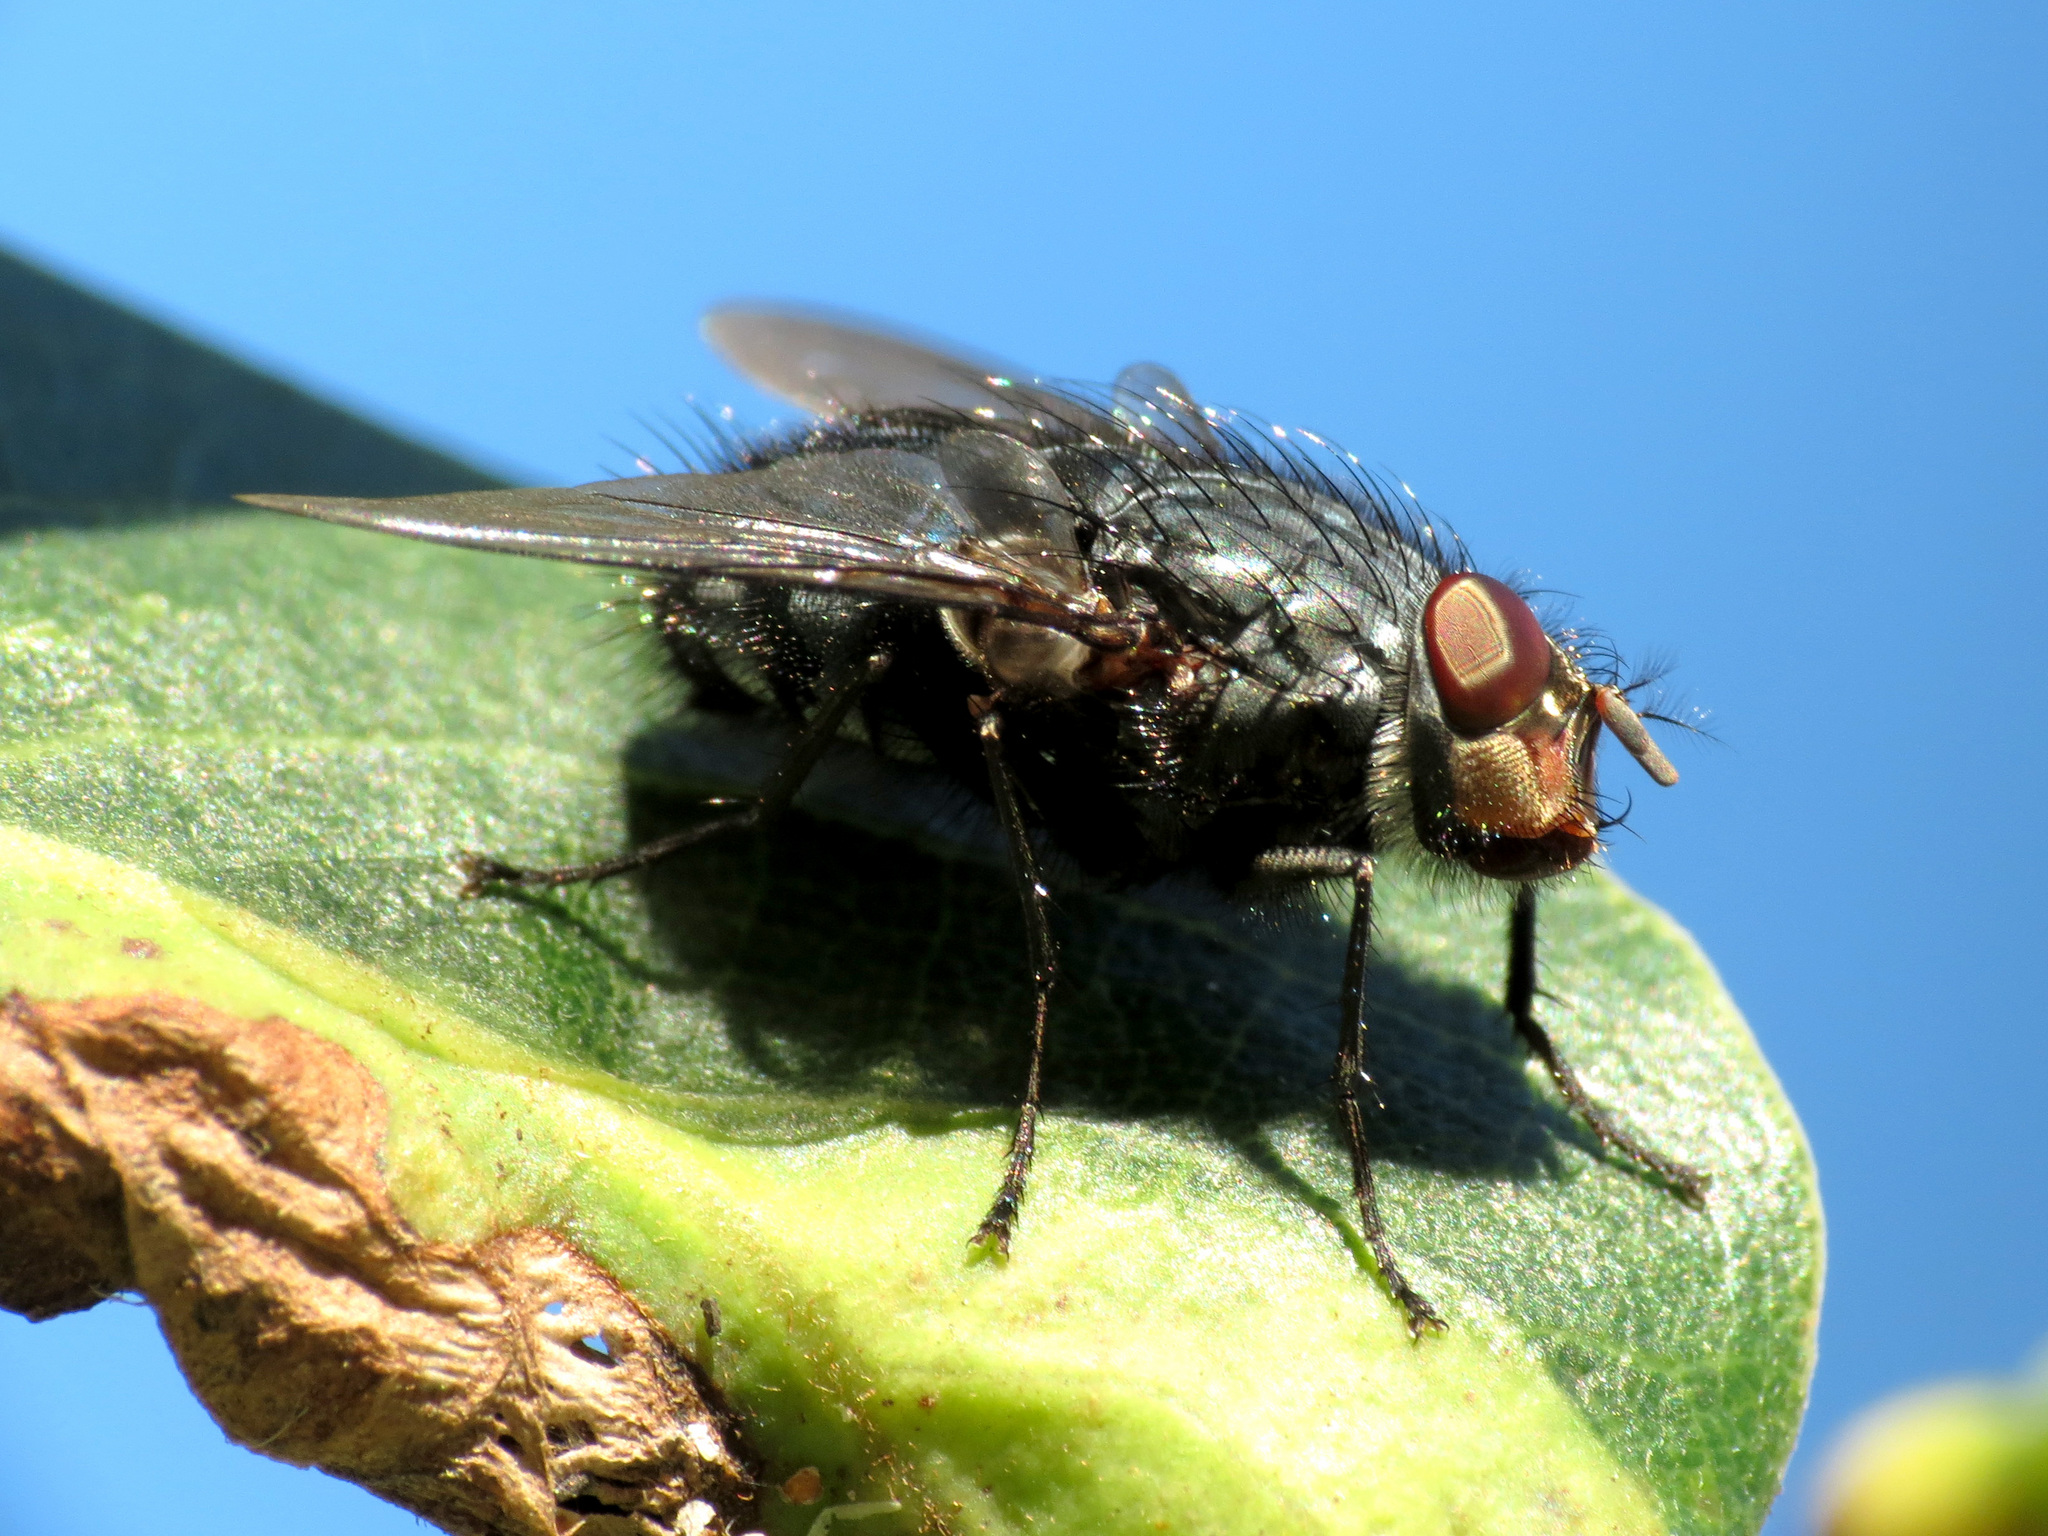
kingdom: Animalia
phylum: Arthropoda
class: Insecta
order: Diptera
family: Calliphoridae
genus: Calliphora
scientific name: Calliphora vicina
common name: Common blow flie
